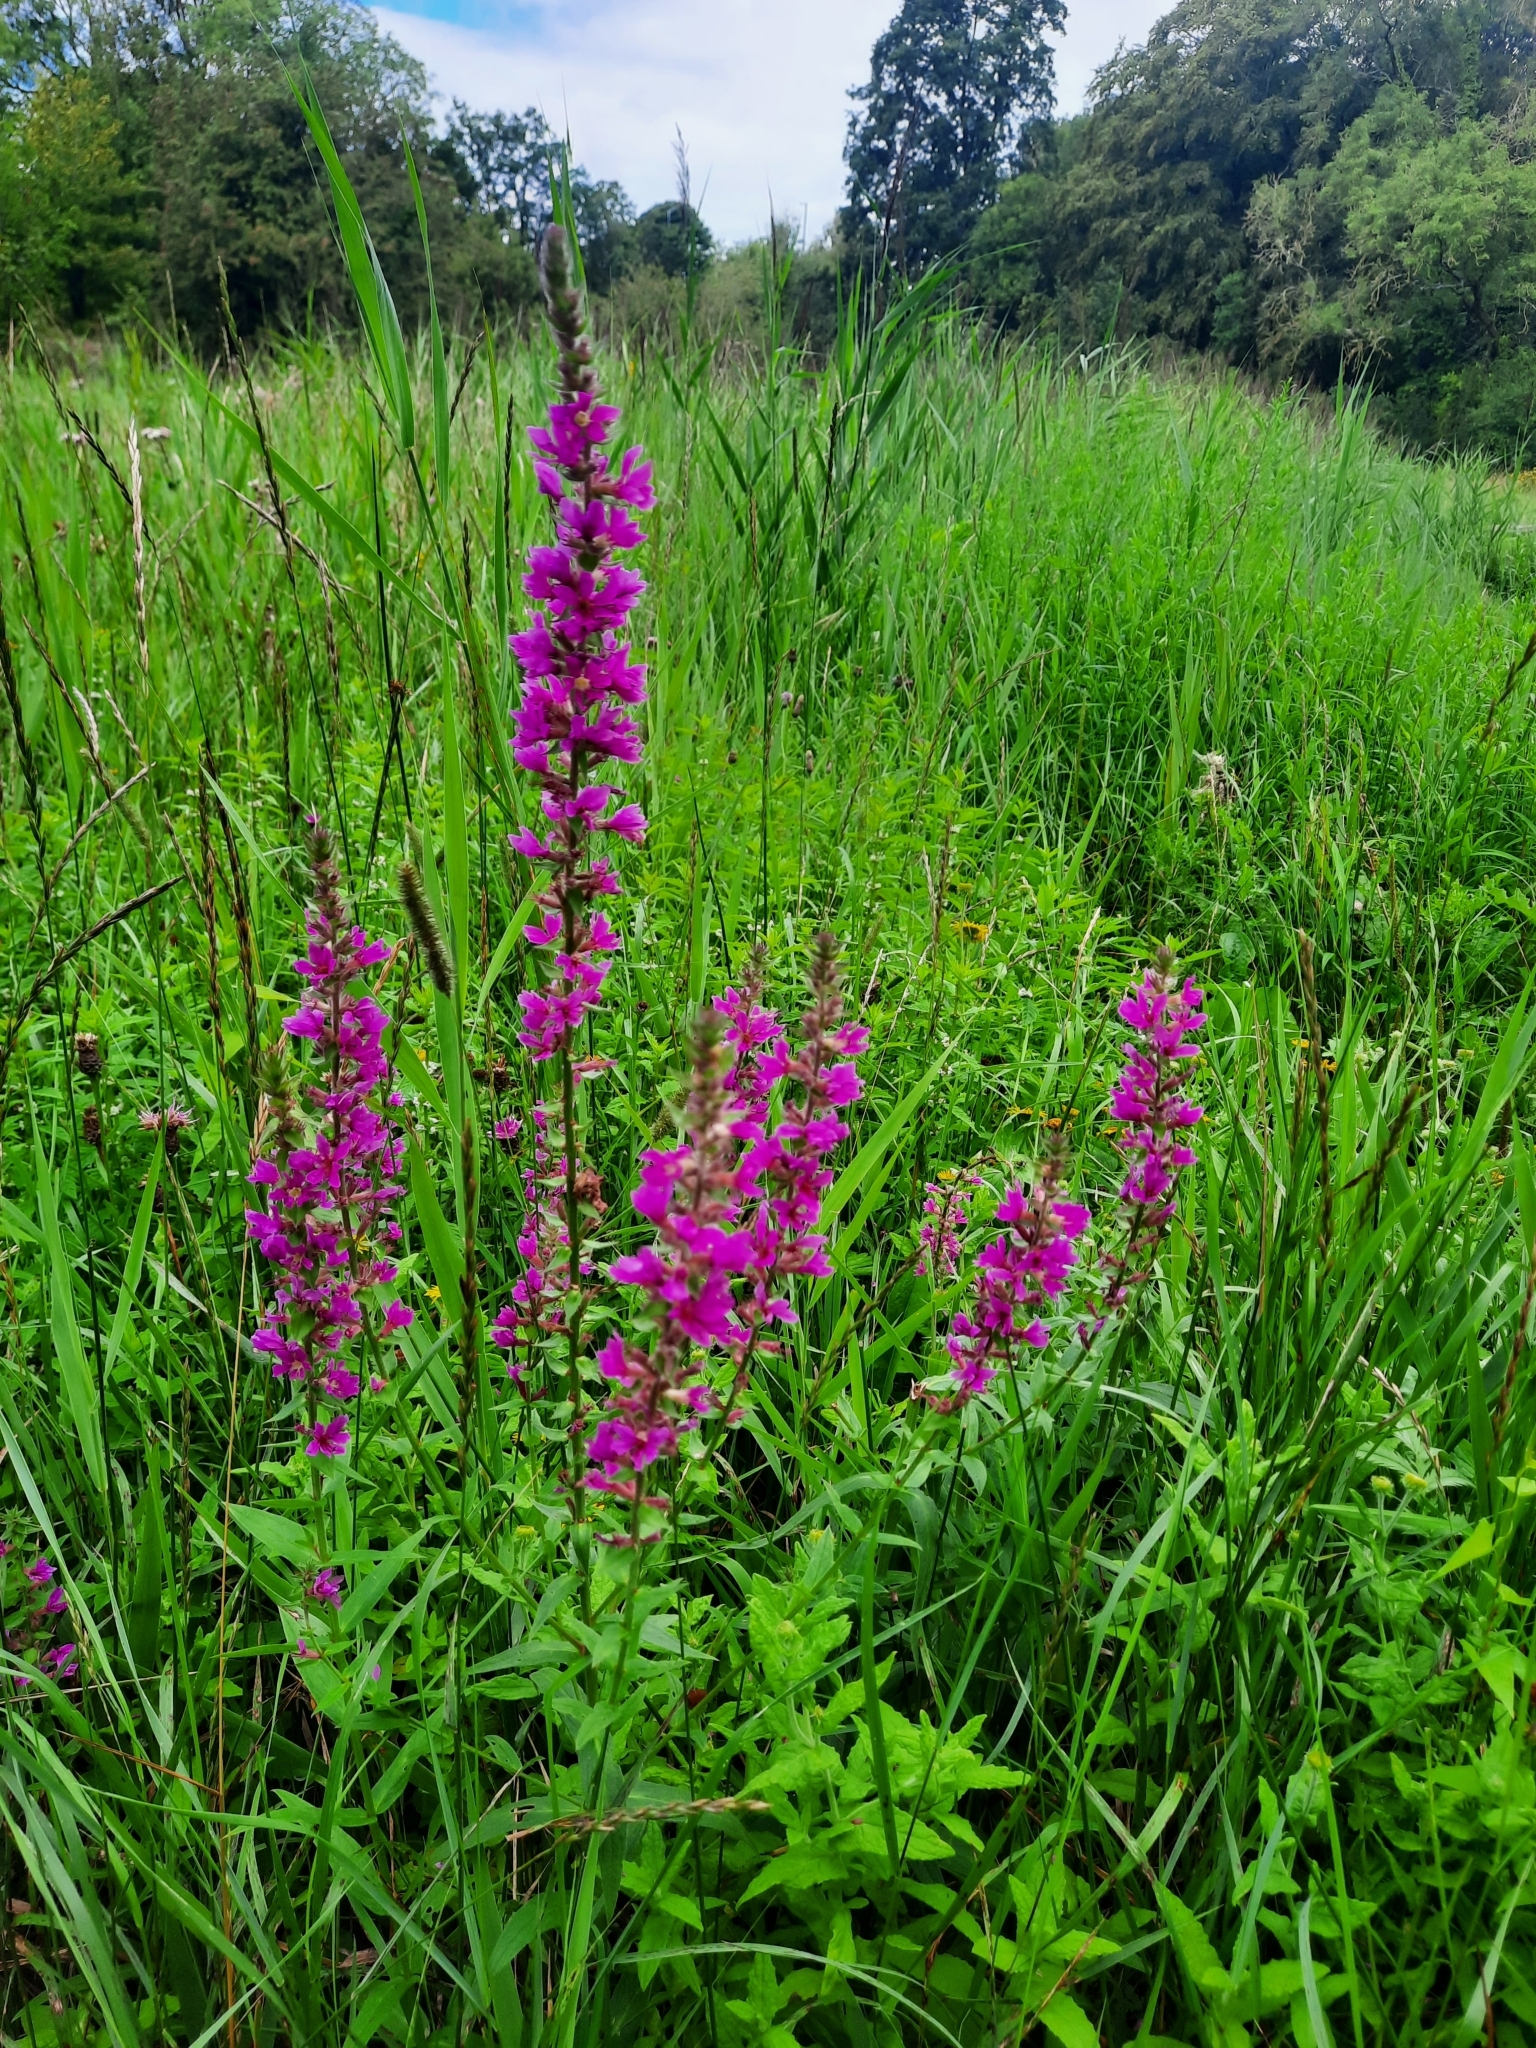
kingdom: Plantae
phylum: Tracheophyta
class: Magnoliopsida
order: Myrtales
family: Lythraceae
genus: Lythrum
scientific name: Lythrum salicaria
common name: Purple loosestrife
